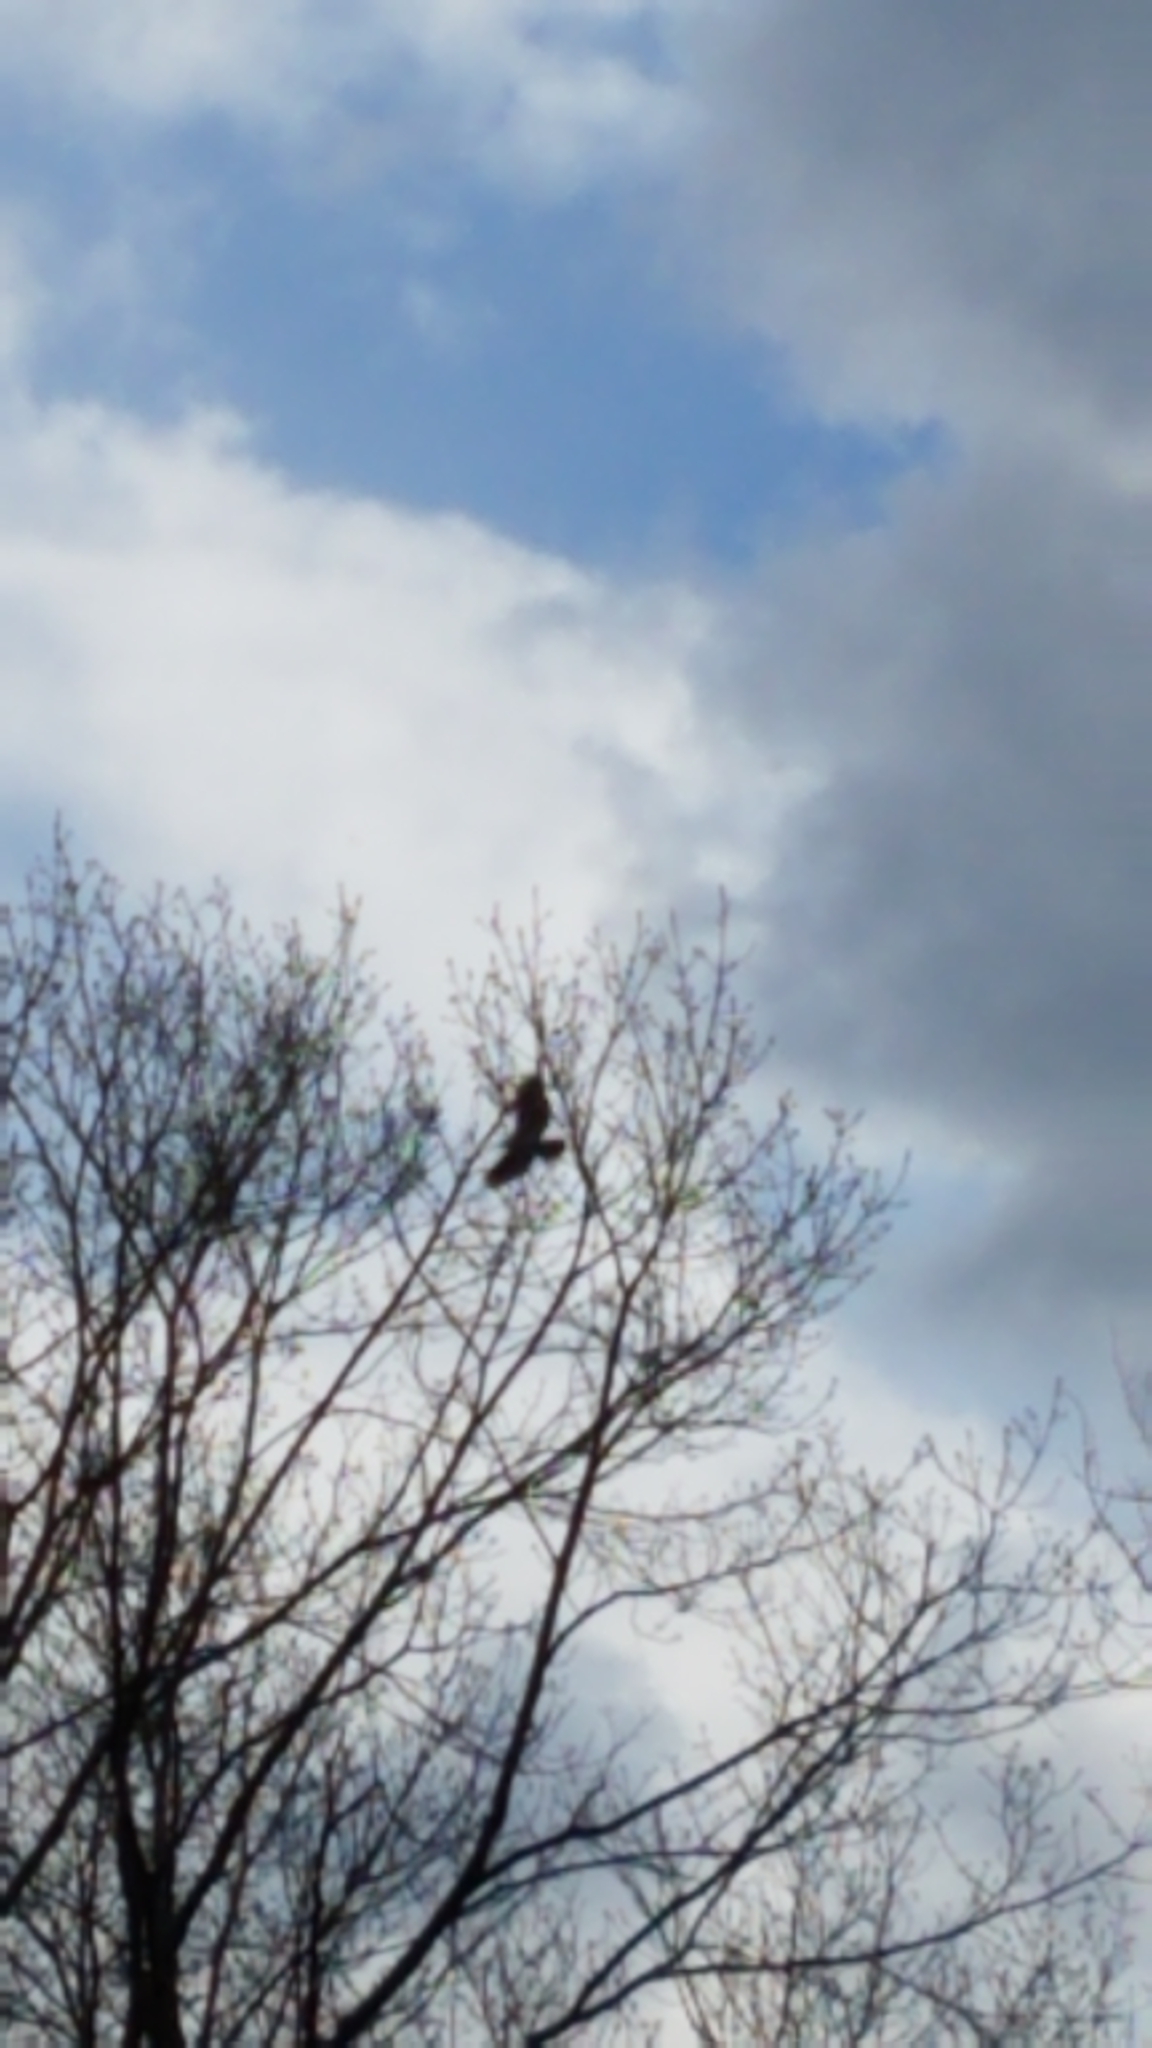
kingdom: Animalia
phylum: Chordata
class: Aves
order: Accipitriformes
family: Accipitridae
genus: Buteo
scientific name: Buteo jamaicensis
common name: Red-tailed hawk
